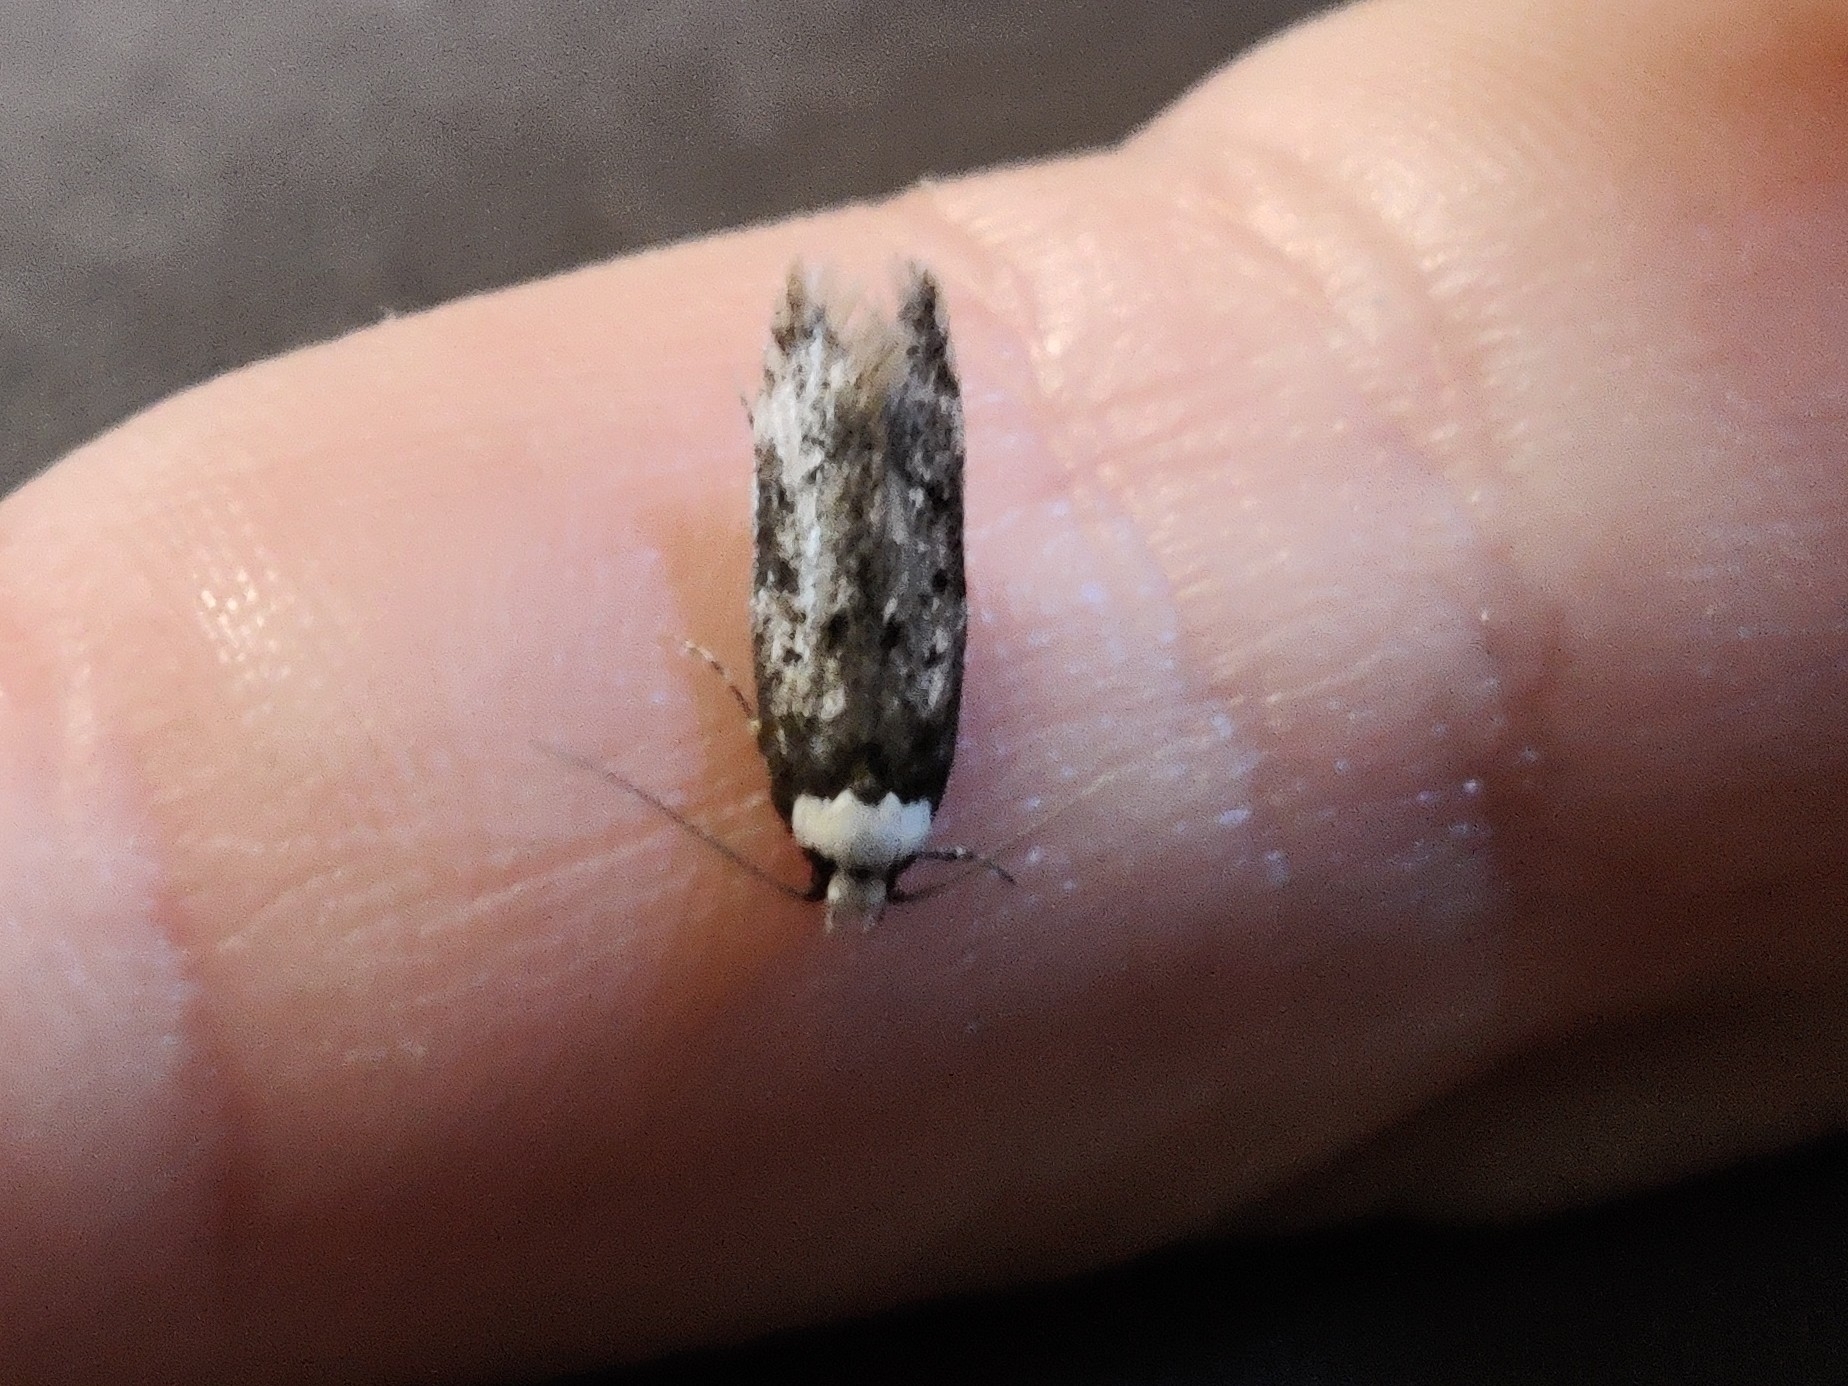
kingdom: Animalia
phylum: Arthropoda
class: Insecta
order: Lepidoptera
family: Oecophoridae
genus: Endrosis
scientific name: Endrosis sarcitrella
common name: White-shouldered house moth
